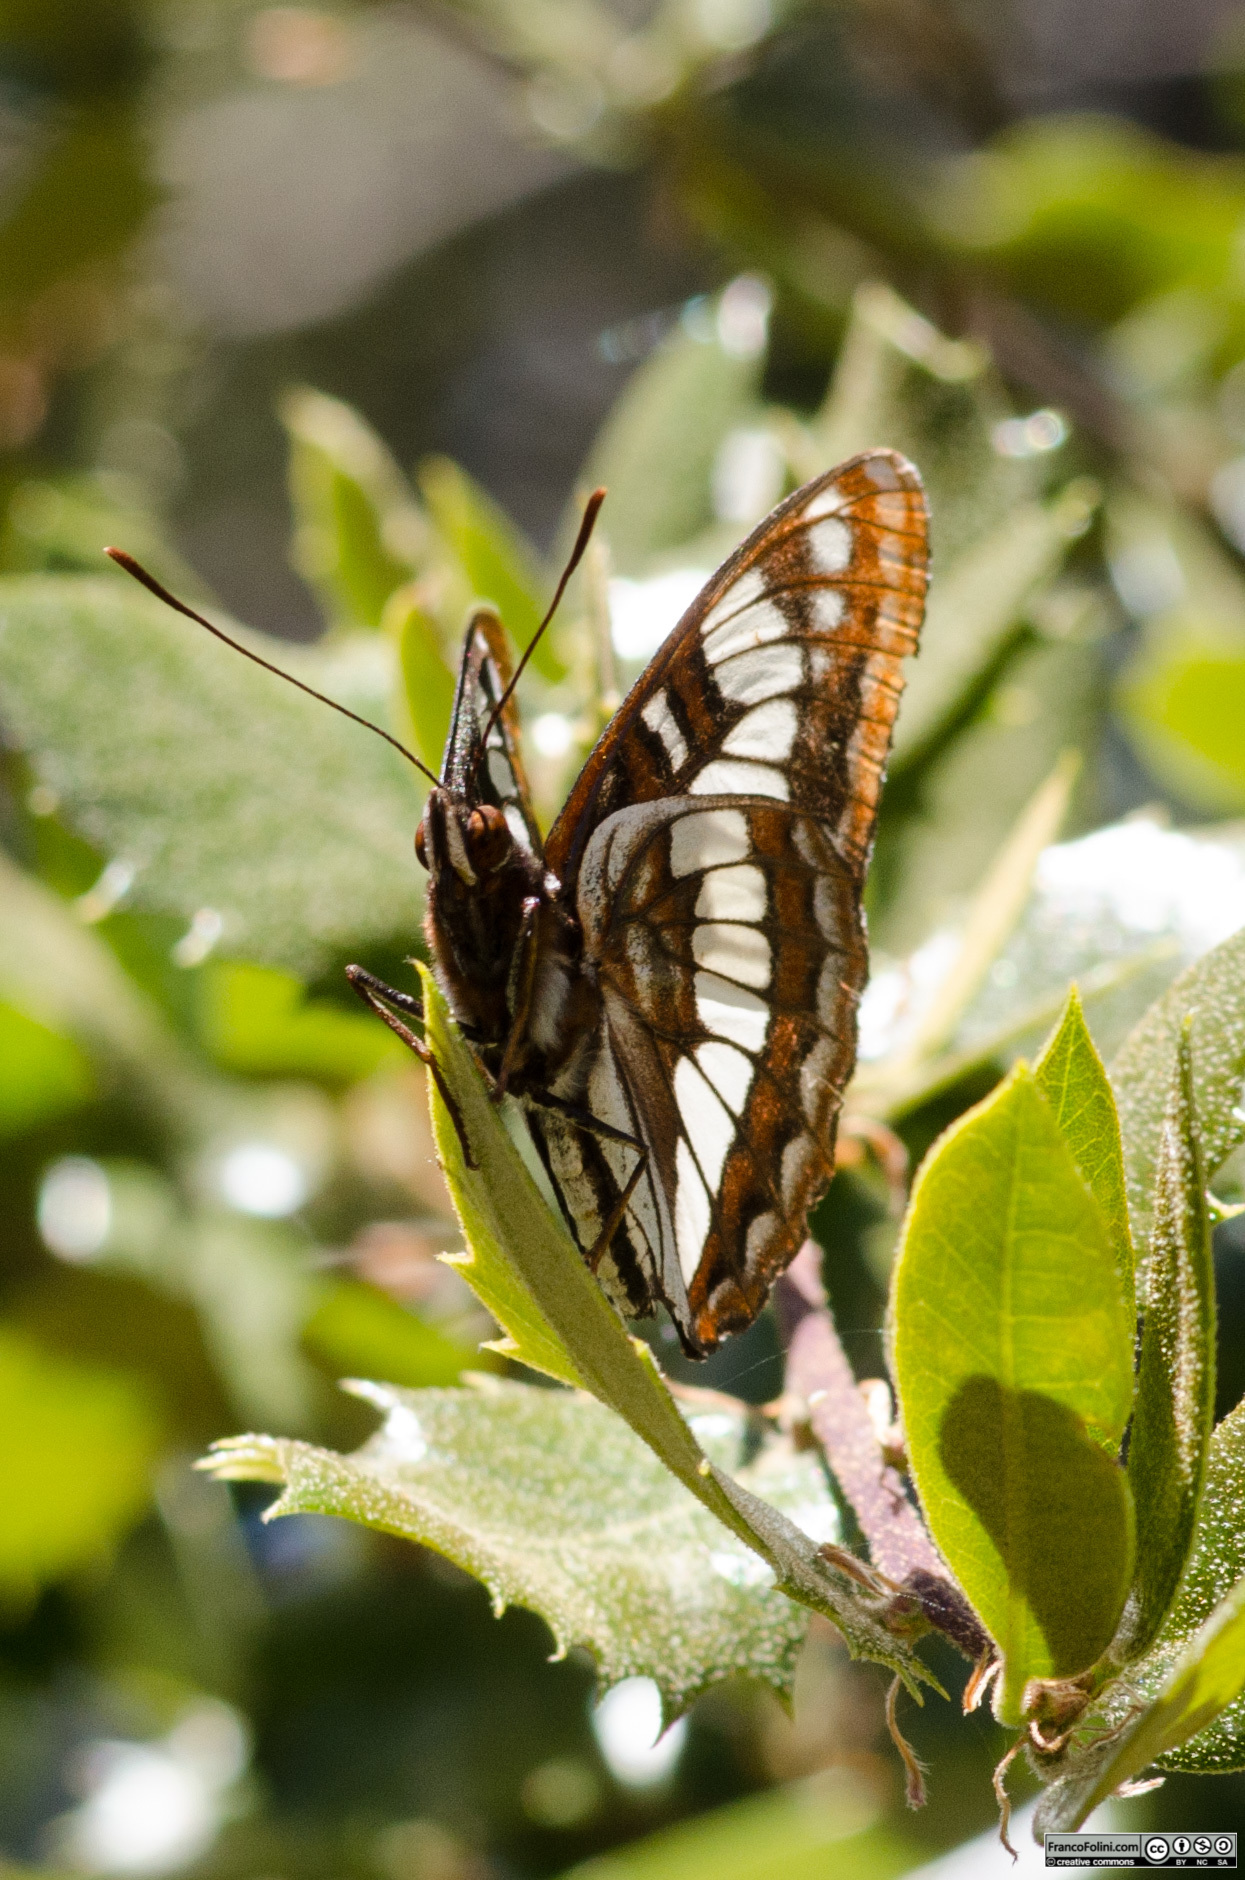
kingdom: Animalia
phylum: Arthropoda
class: Insecta
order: Lepidoptera
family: Nymphalidae
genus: Limenitis
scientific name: Limenitis lorquini
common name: Lorquin's admiral
